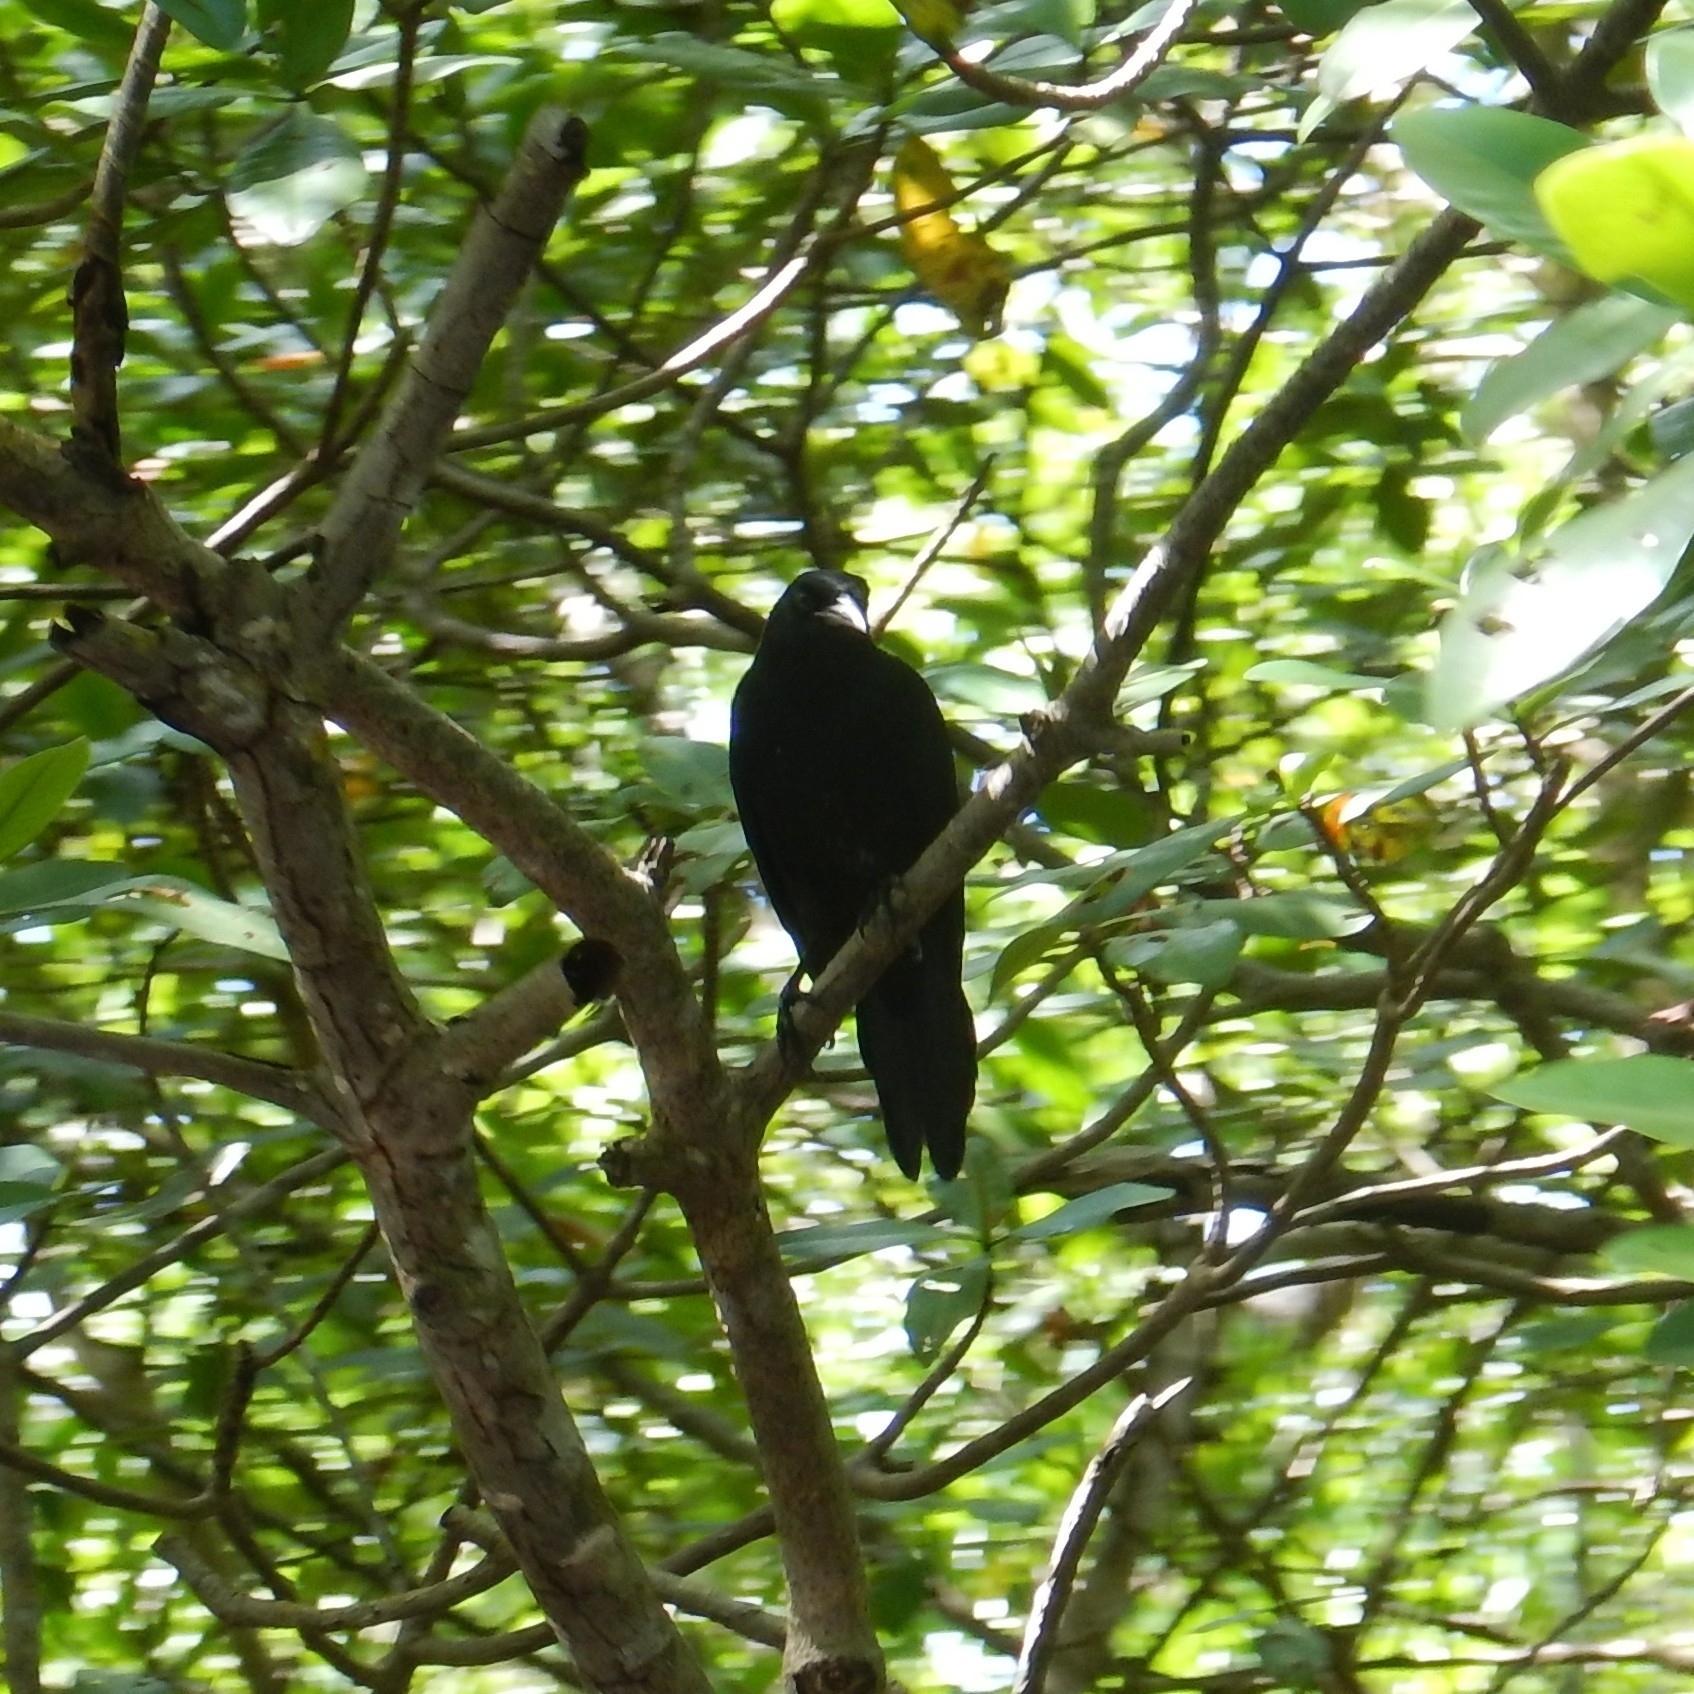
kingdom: Animalia
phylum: Chordata
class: Aves
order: Passeriformes
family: Icteridae
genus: Quiscalus
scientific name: Quiscalus lugubris
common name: Carib grackle
